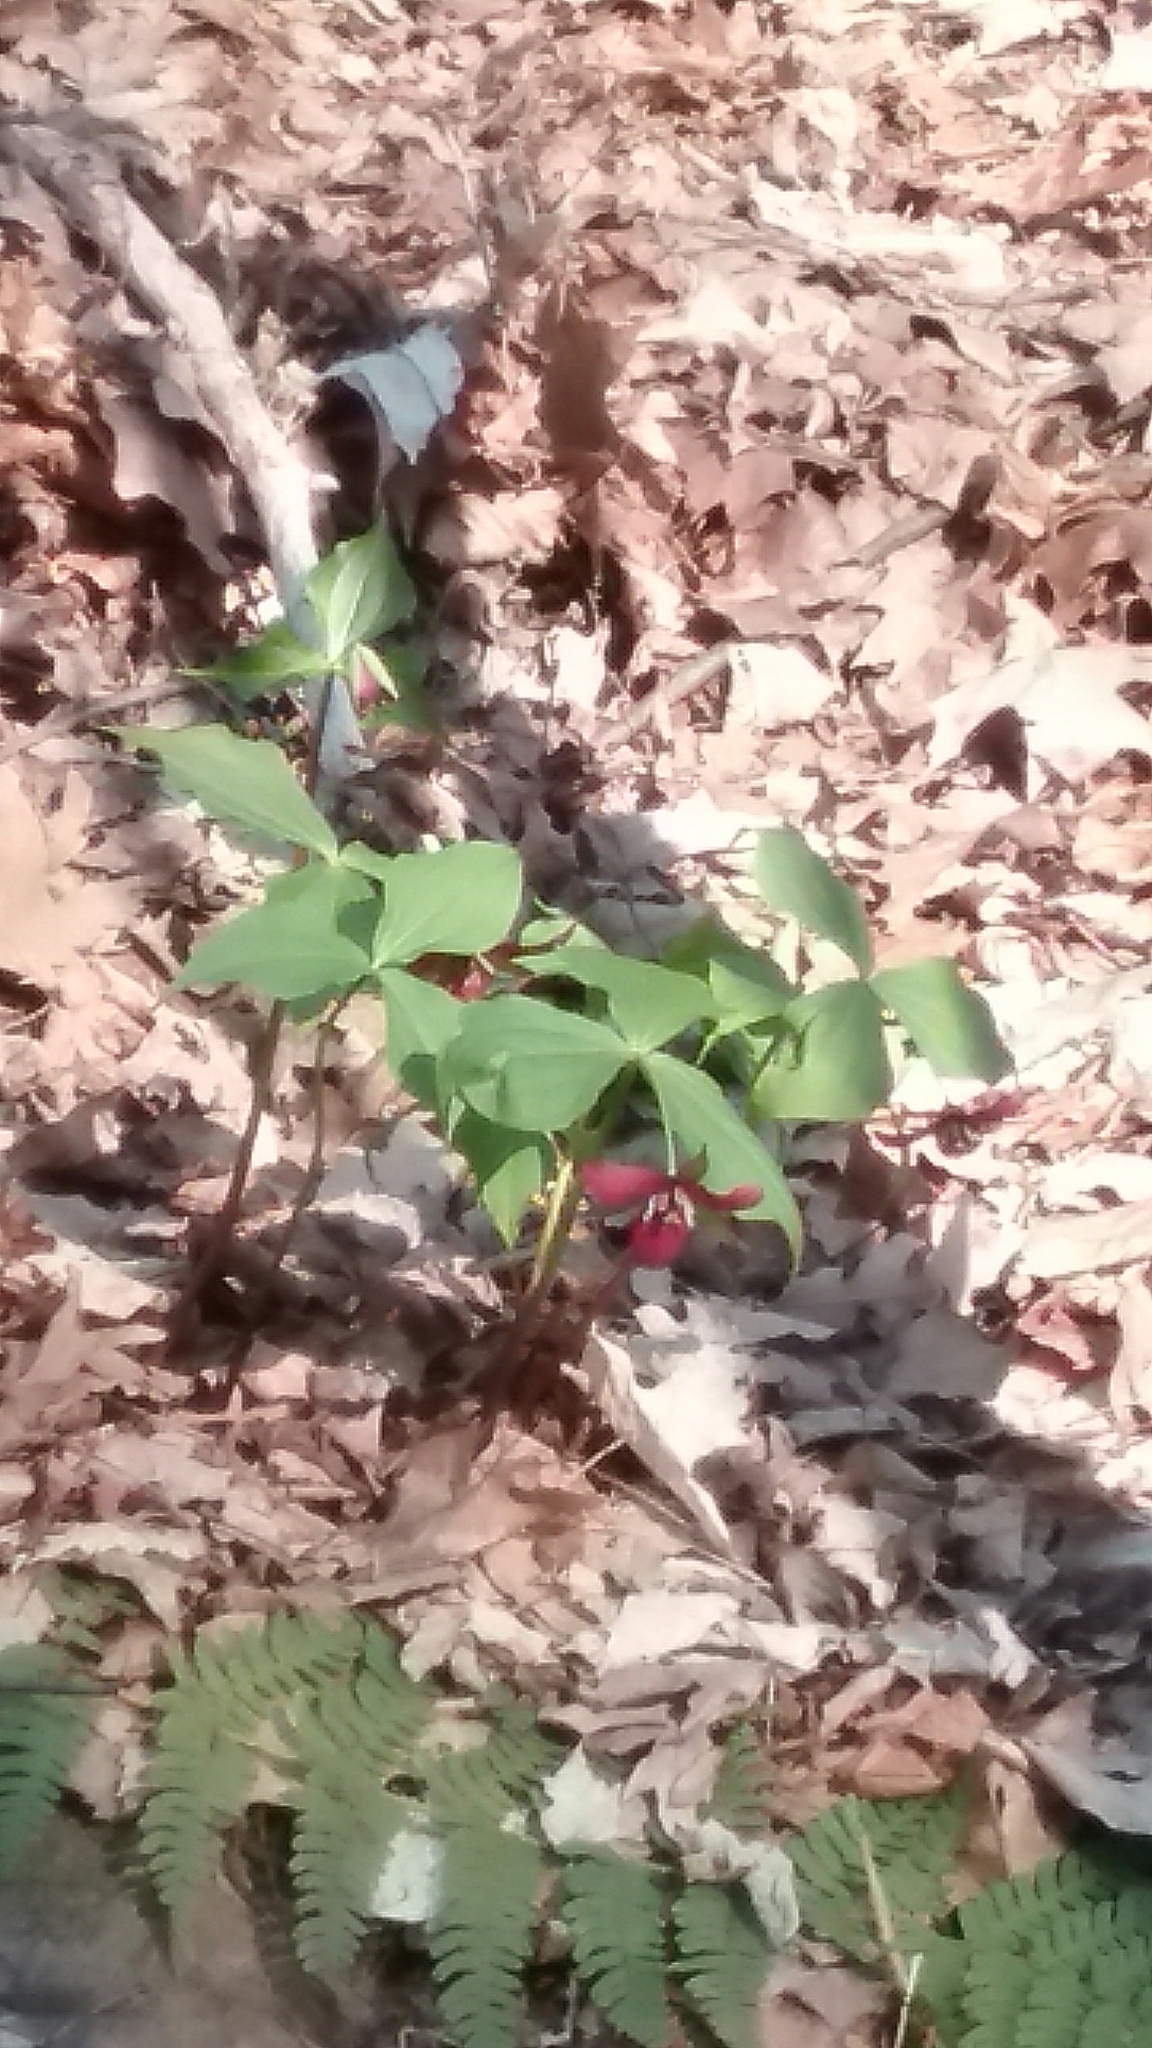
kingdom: Plantae
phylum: Tracheophyta
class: Liliopsida
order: Liliales
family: Melanthiaceae
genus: Trillium
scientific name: Trillium erectum
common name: Purple trillium
